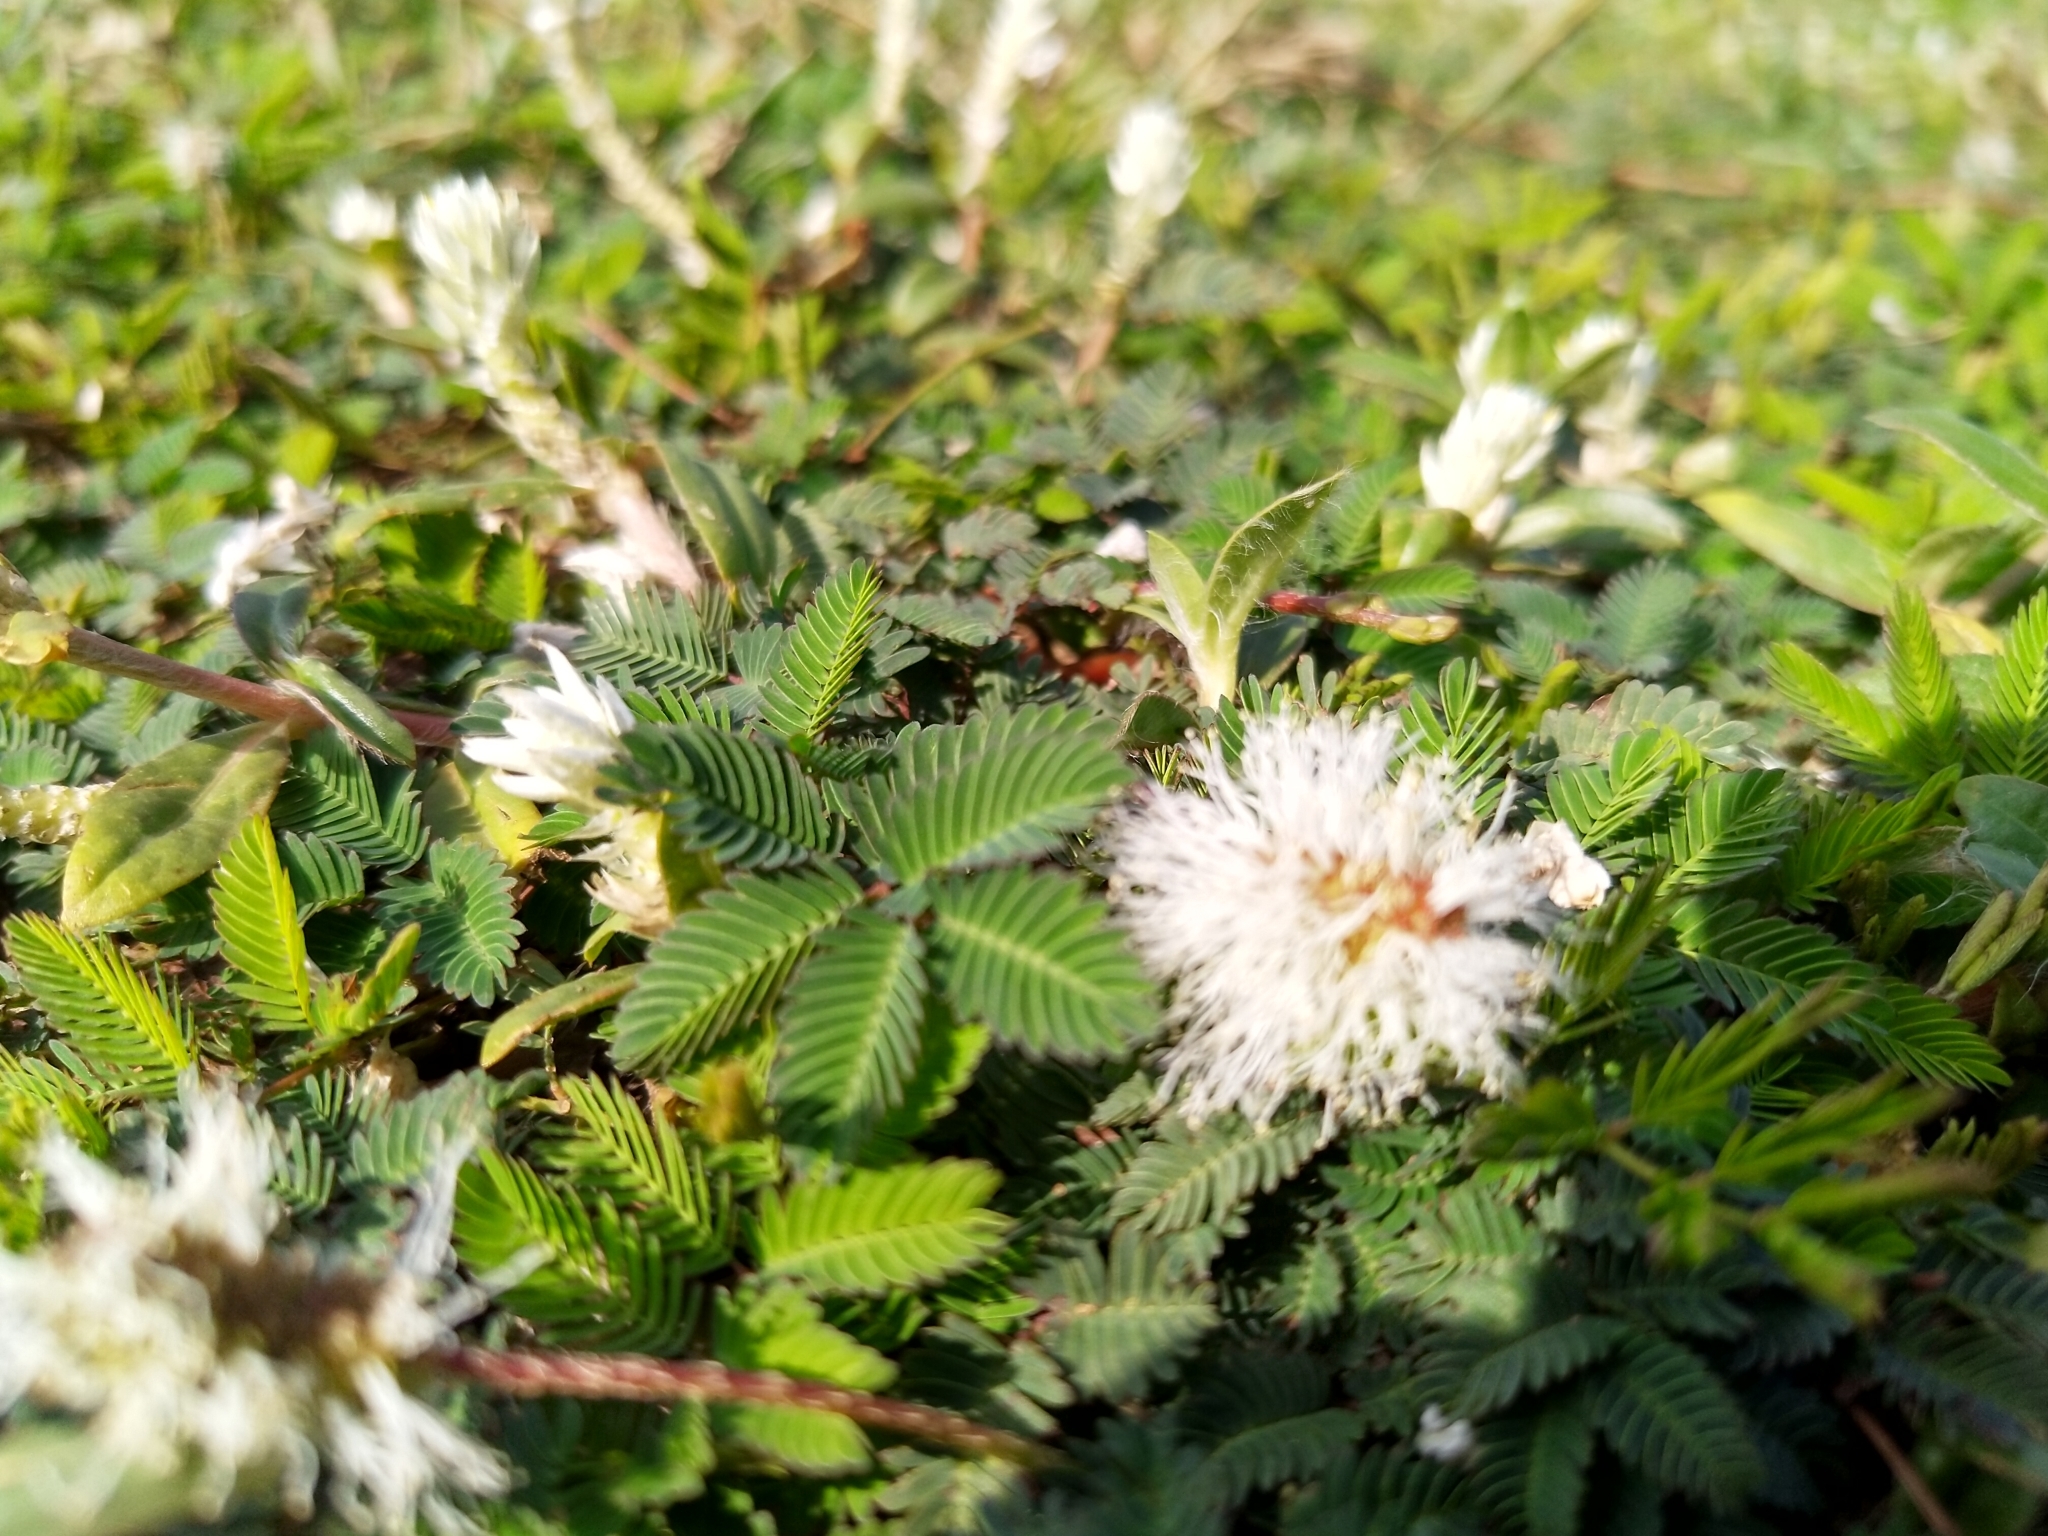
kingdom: Plantae
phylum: Tracheophyta
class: Magnoliopsida
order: Fabales
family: Fabaceae
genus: Mimosa
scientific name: Mimosa strigillosa
